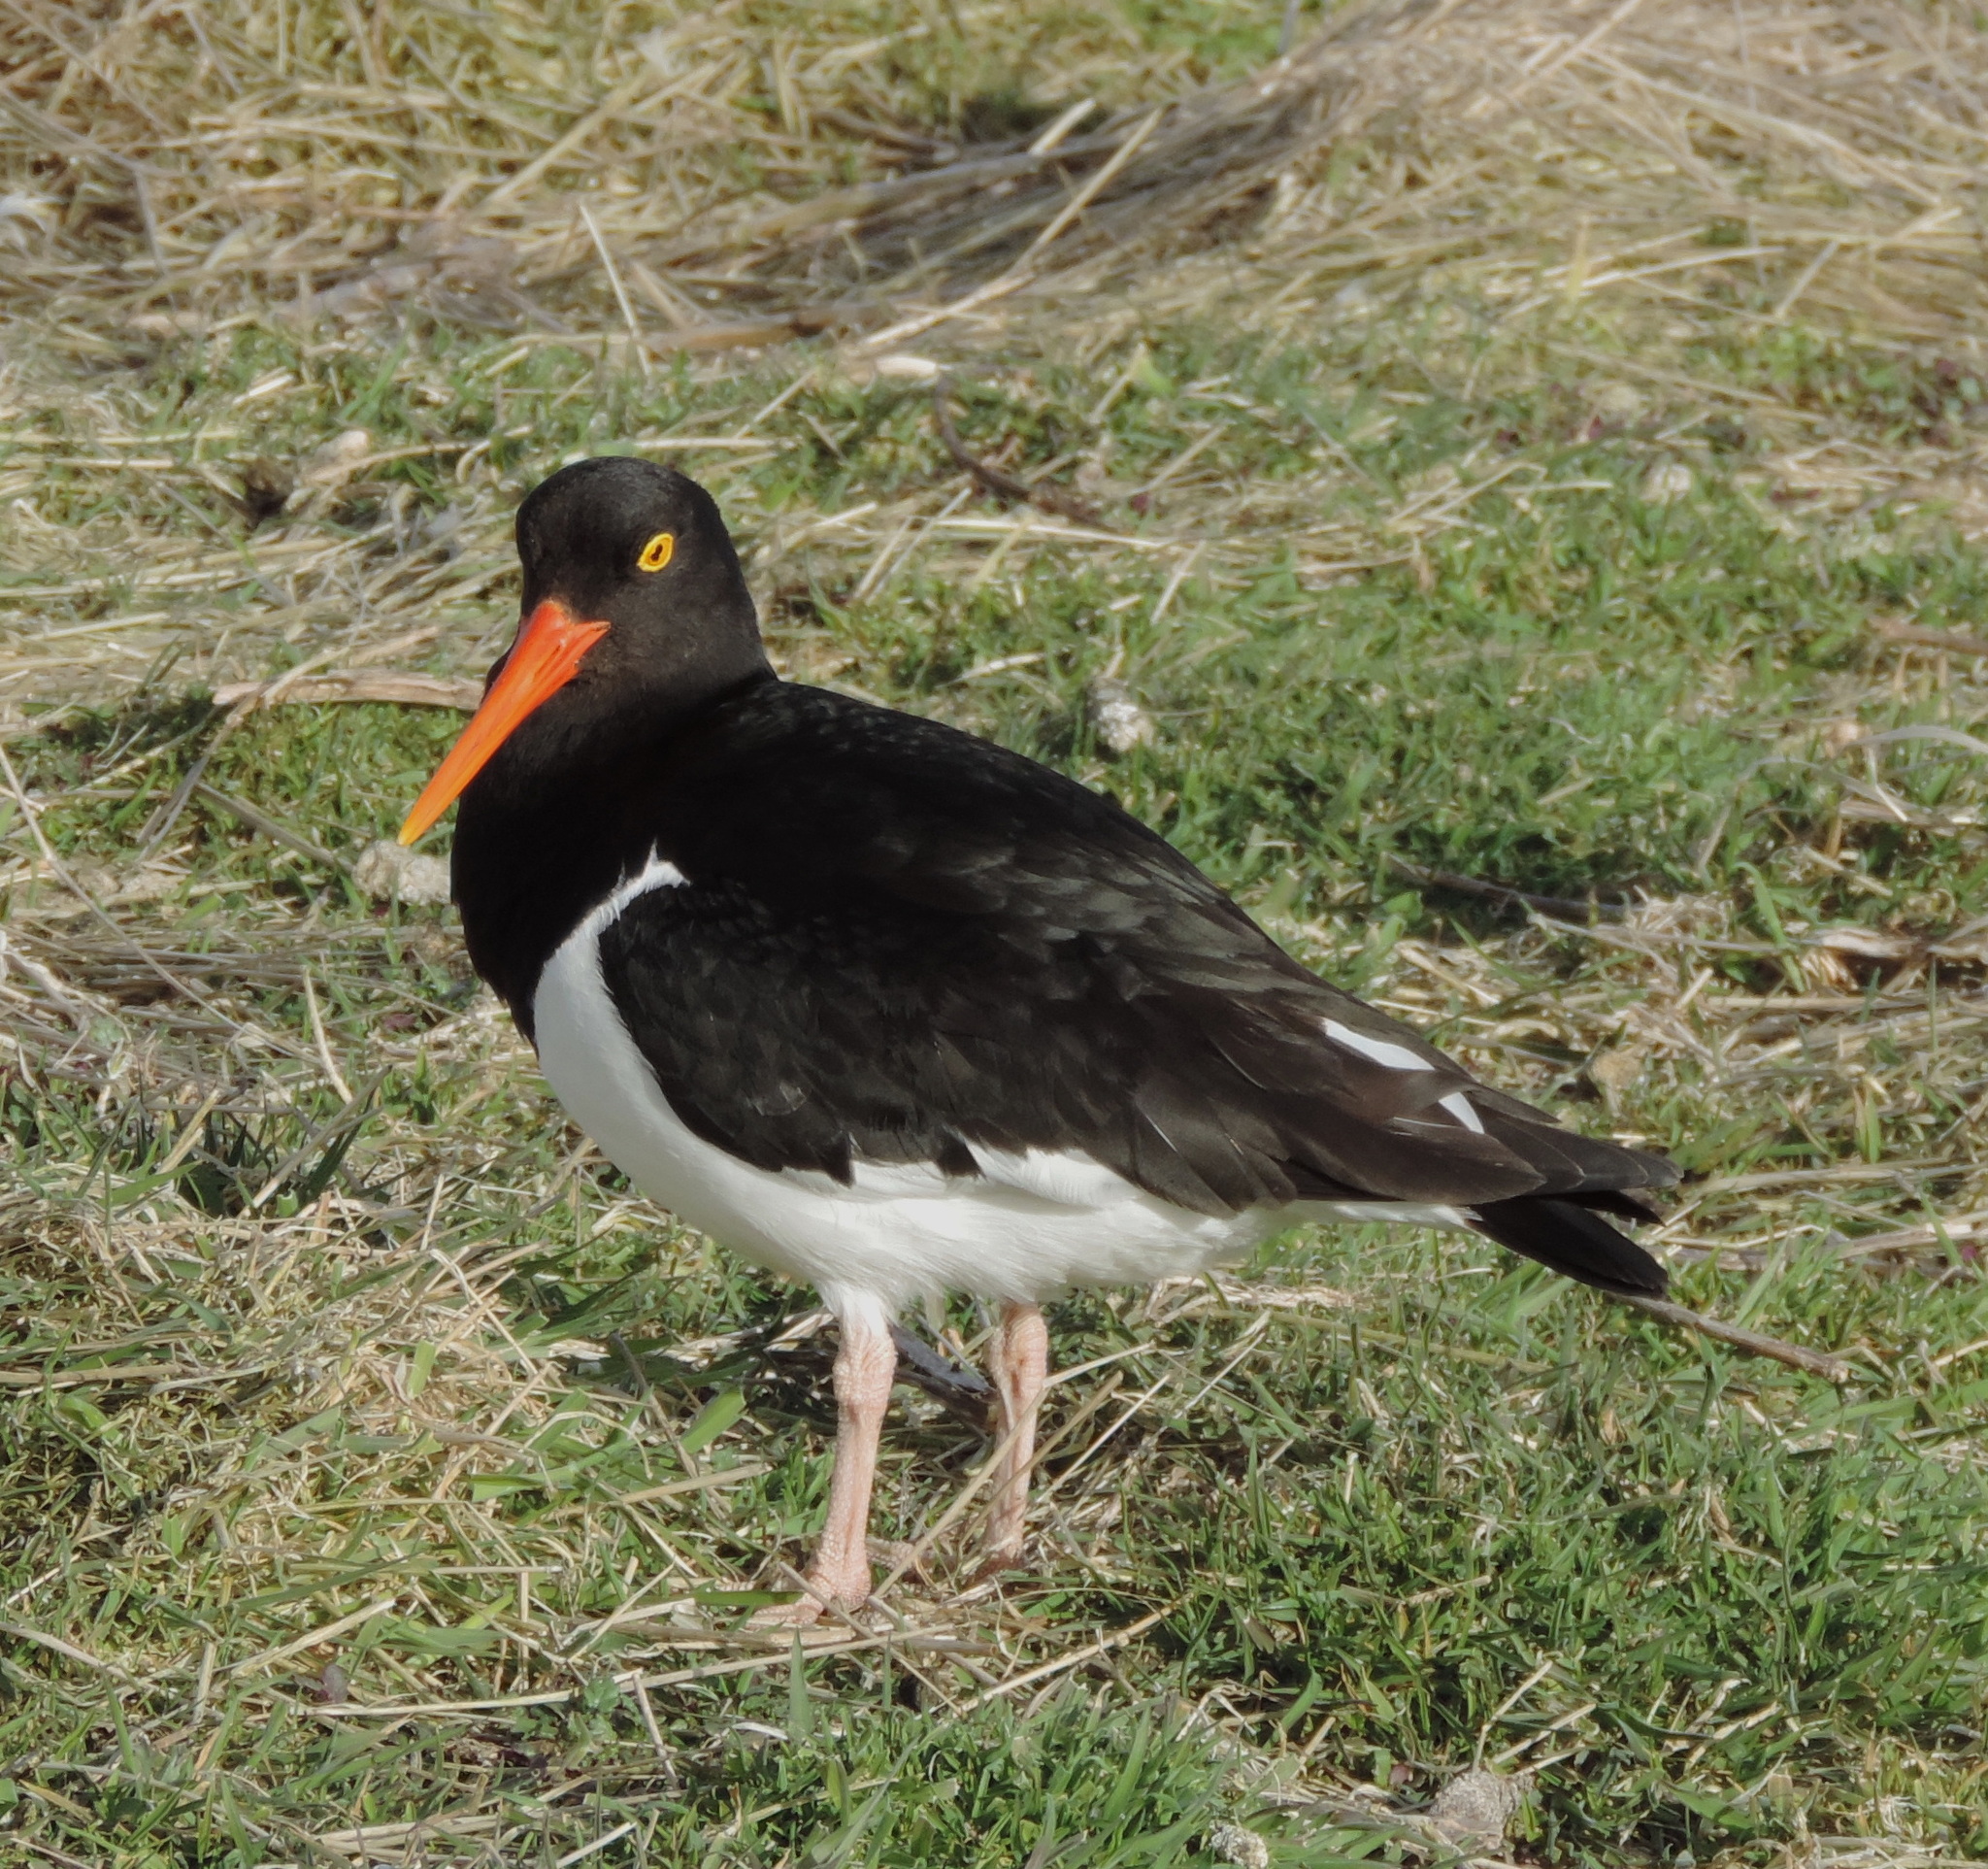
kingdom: Animalia
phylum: Chordata
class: Aves
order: Charadriiformes
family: Haematopodidae
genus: Haematopus
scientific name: Haematopus leucopodus
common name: Magellanic oystercatcher
